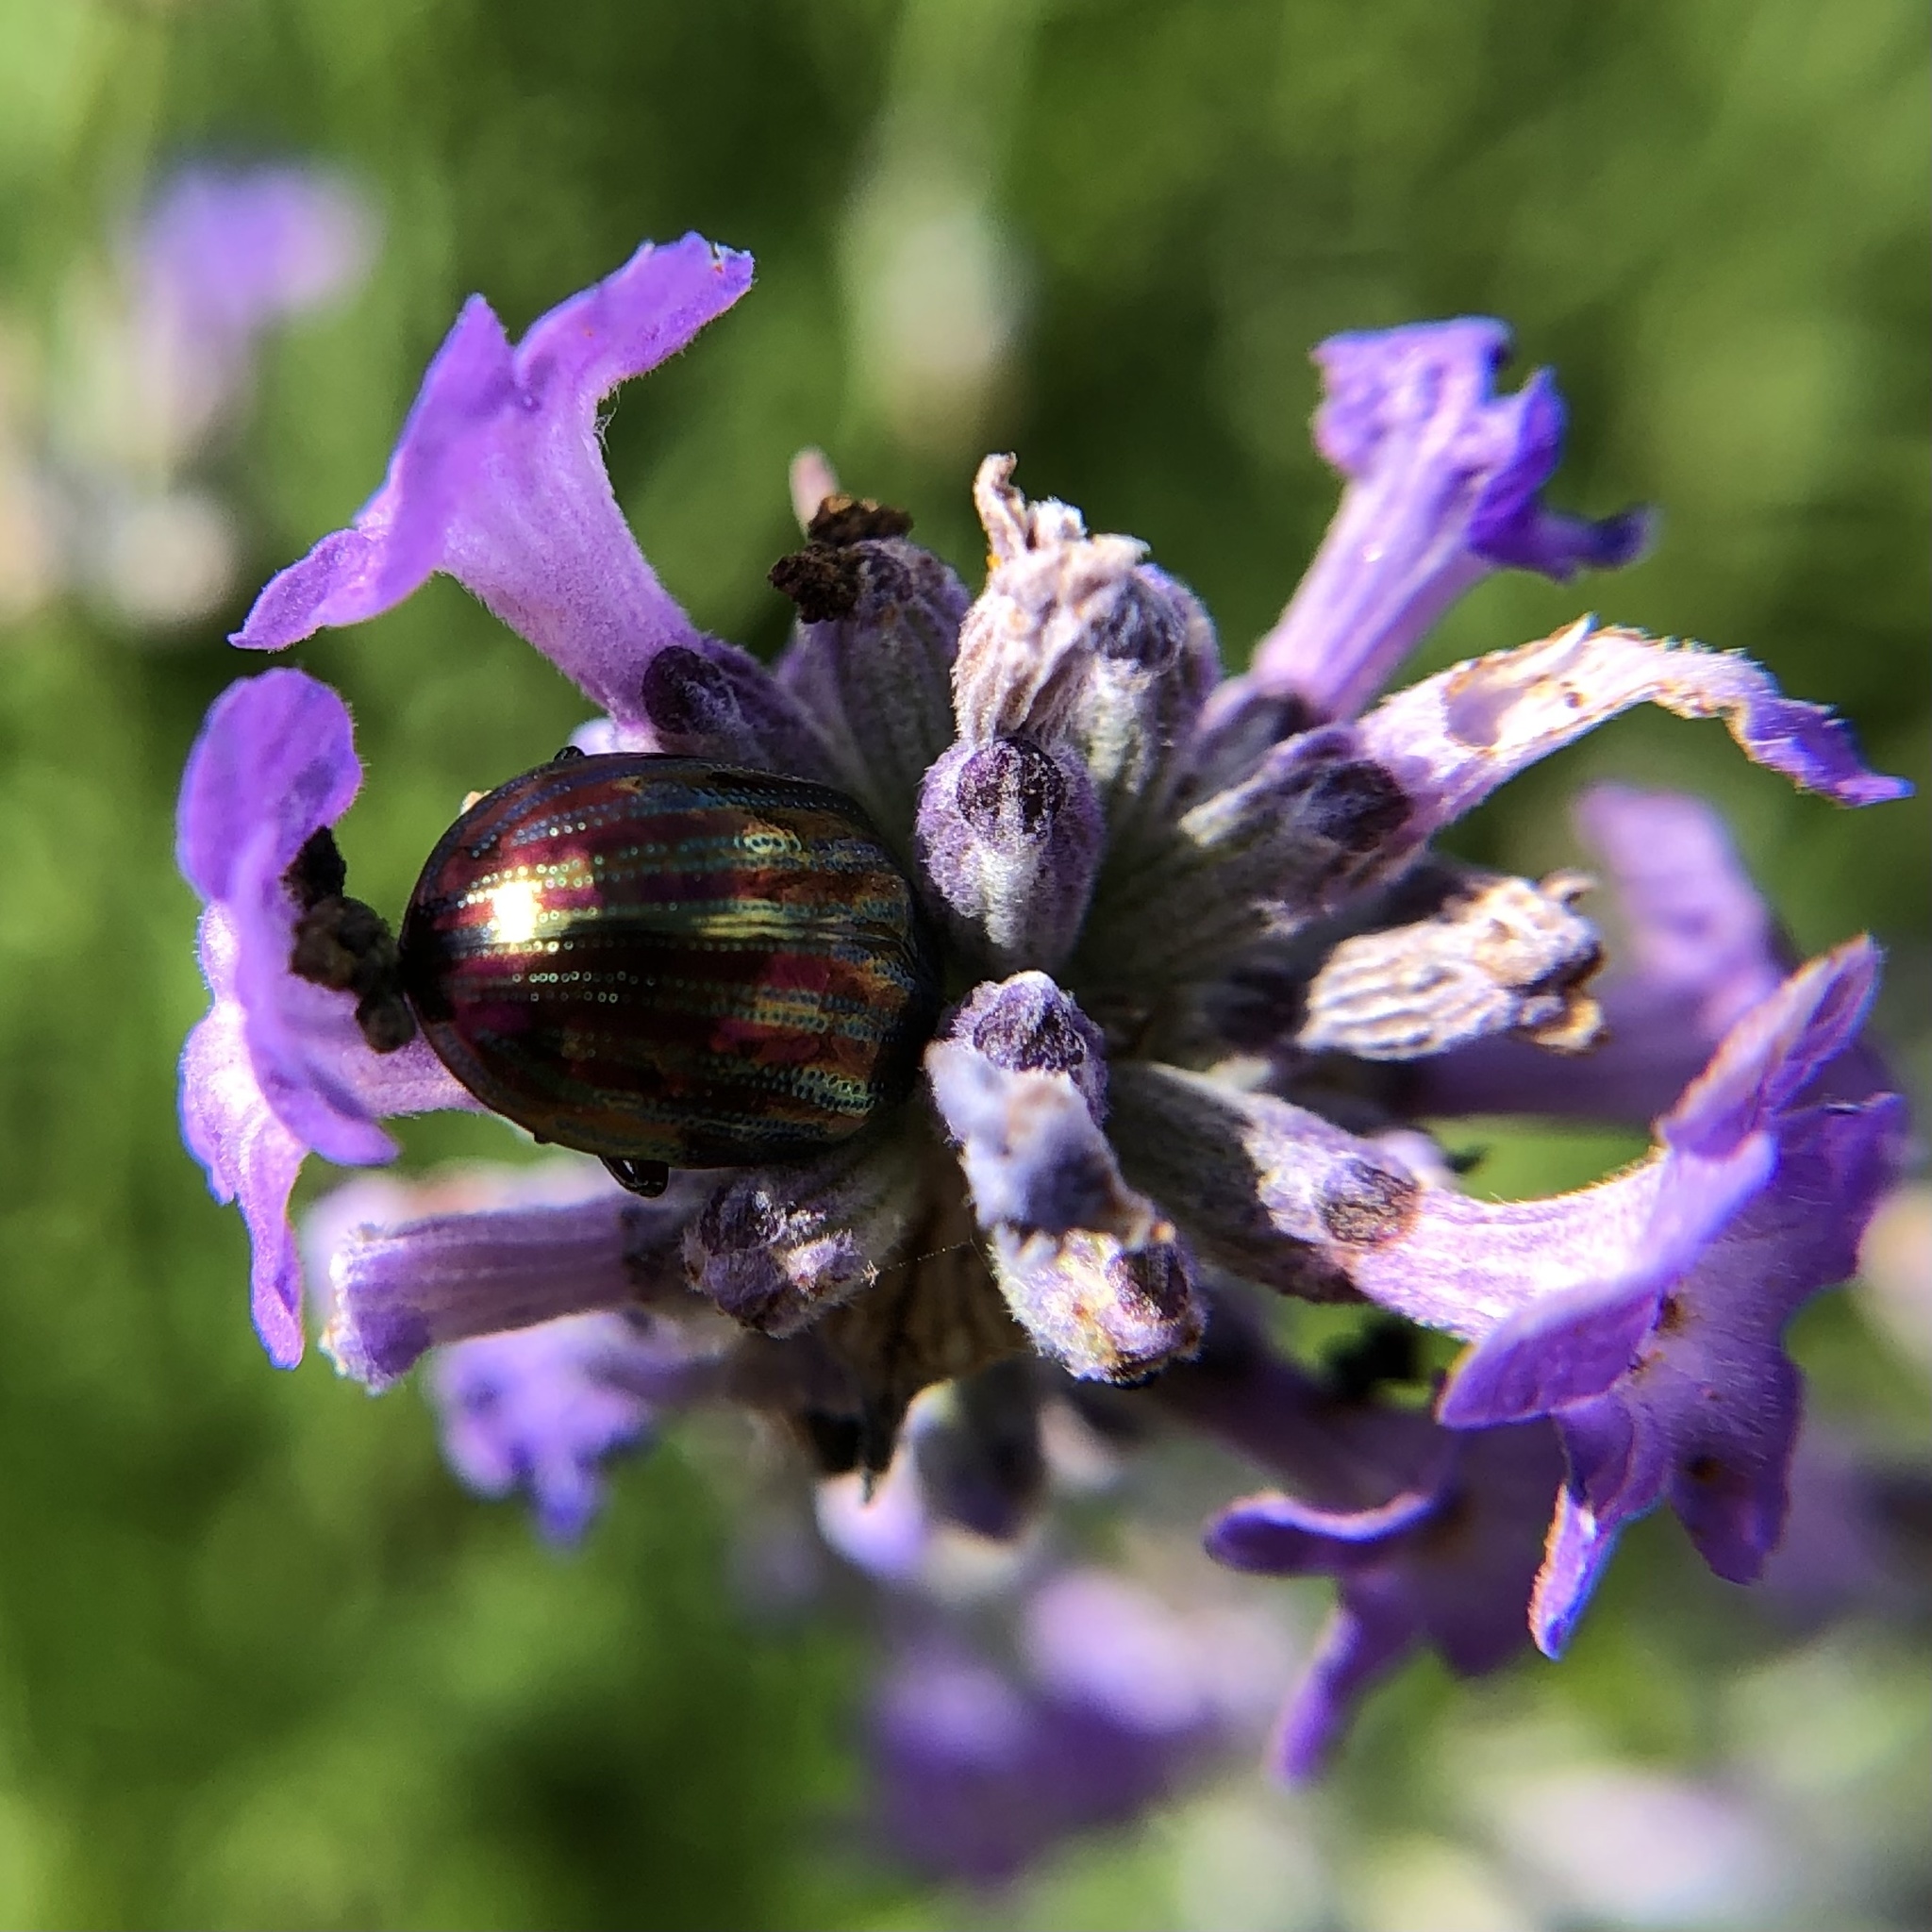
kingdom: Animalia
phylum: Arthropoda
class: Insecta
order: Coleoptera
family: Chrysomelidae
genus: Chrysolina
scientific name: Chrysolina americana
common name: Rosemary beetle
